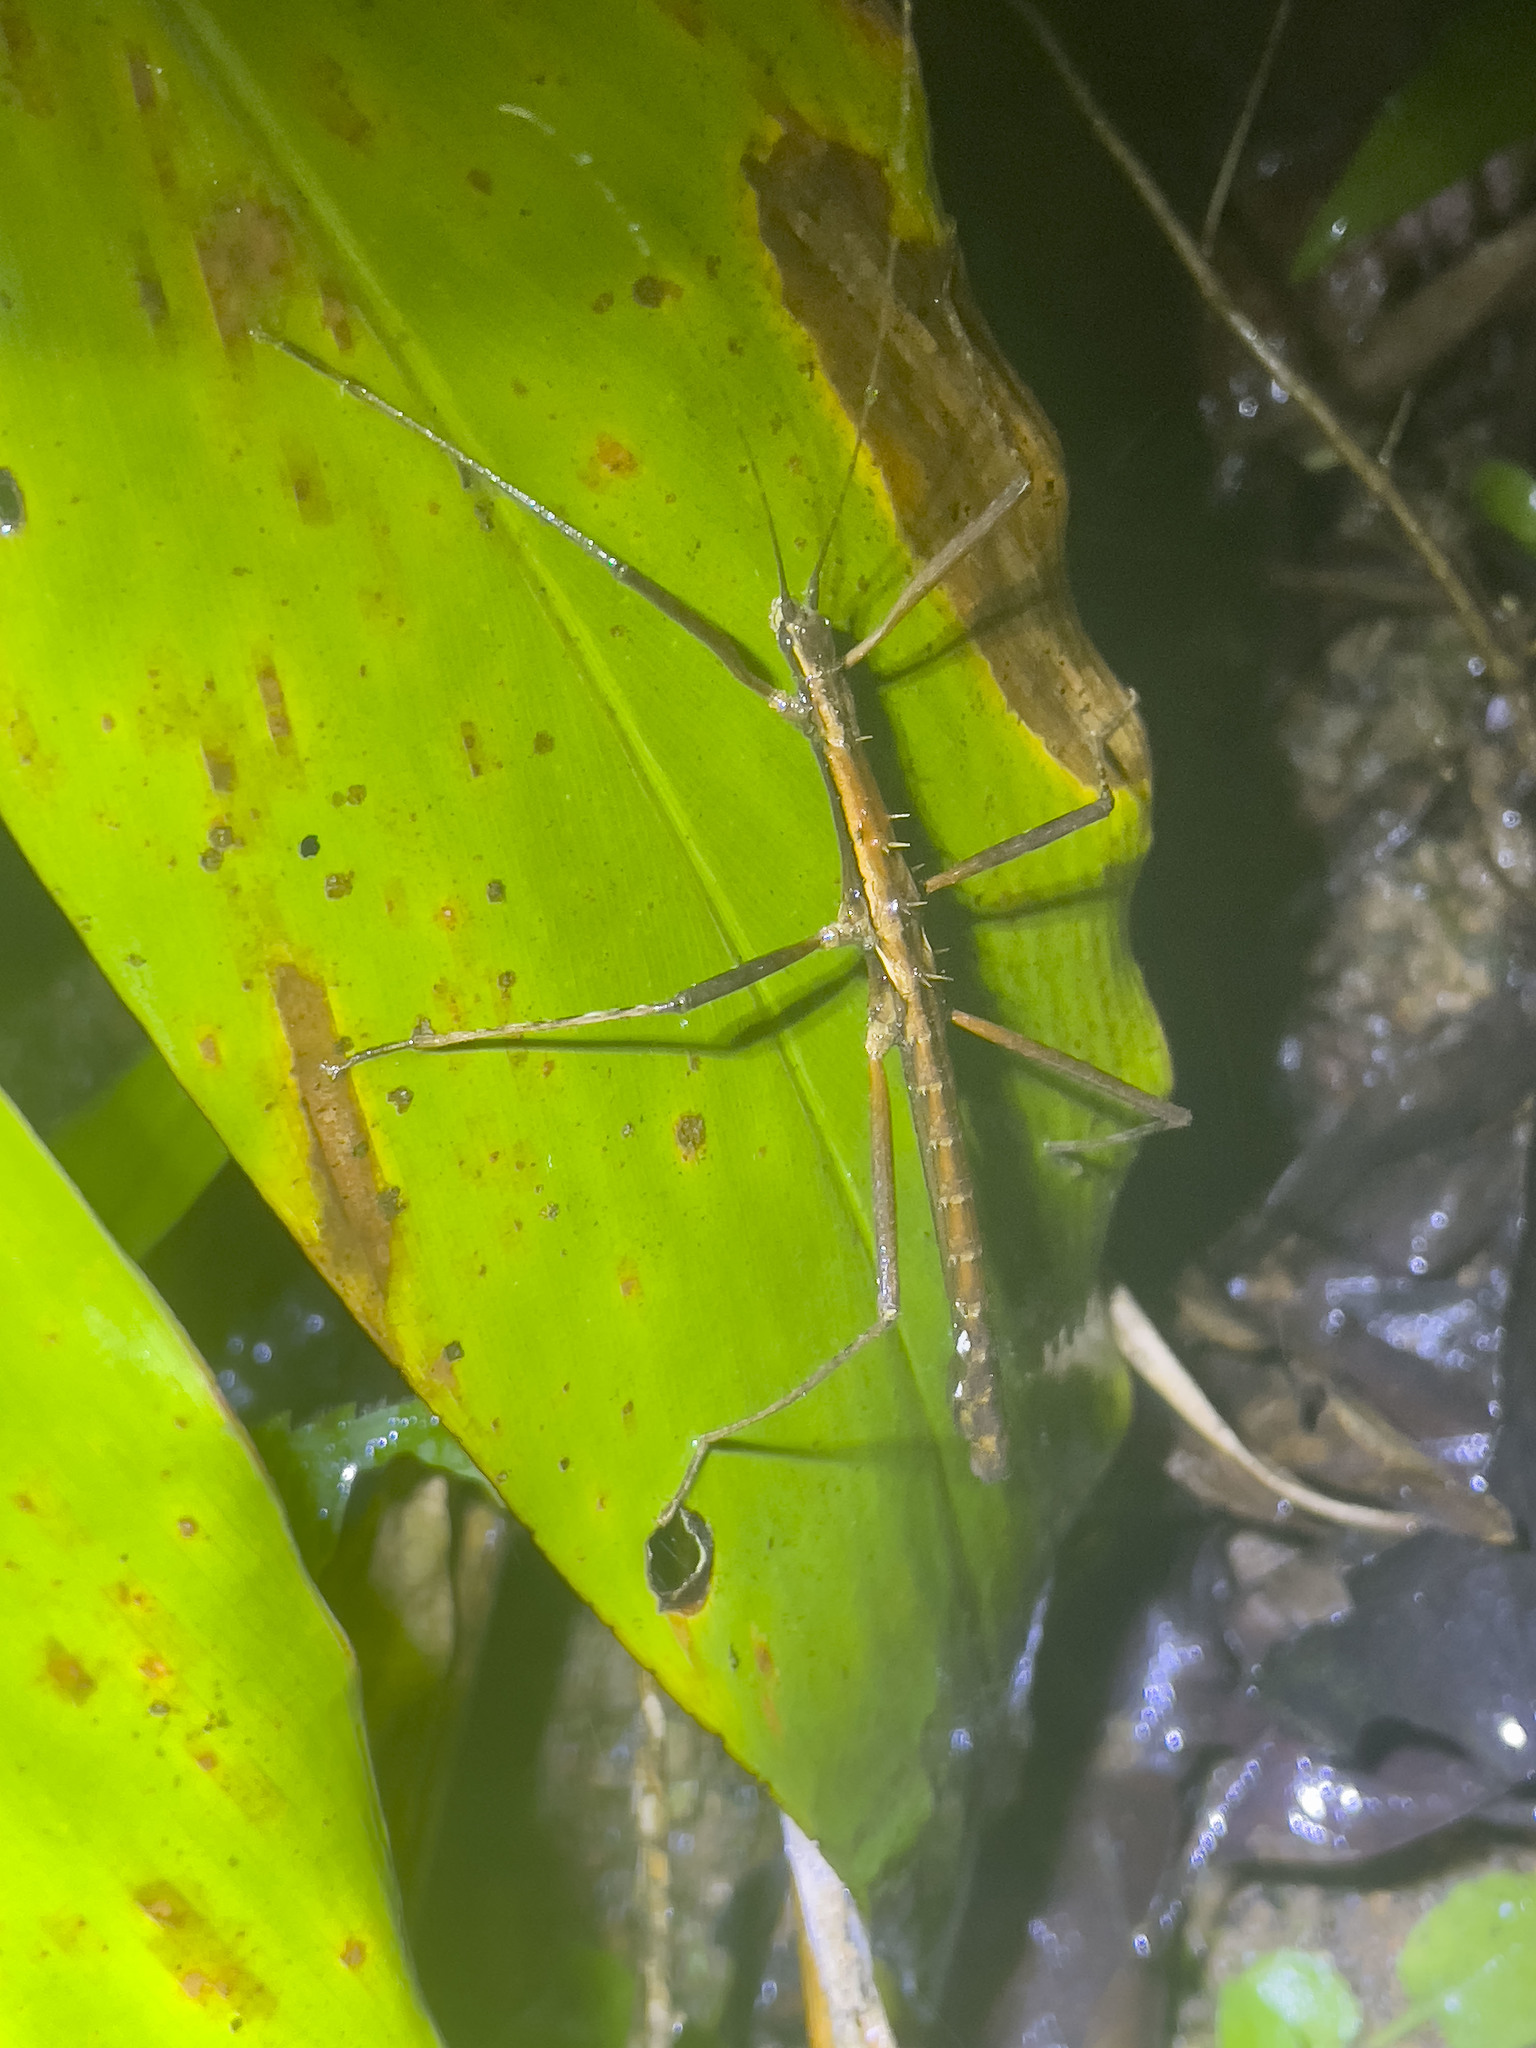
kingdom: Animalia
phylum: Arthropoda
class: Insecta
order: Phasmida
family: Lonchodidae
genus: Neohirasea
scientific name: Neohirasea hongkongensis
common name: Hong kong spiny stick insect
